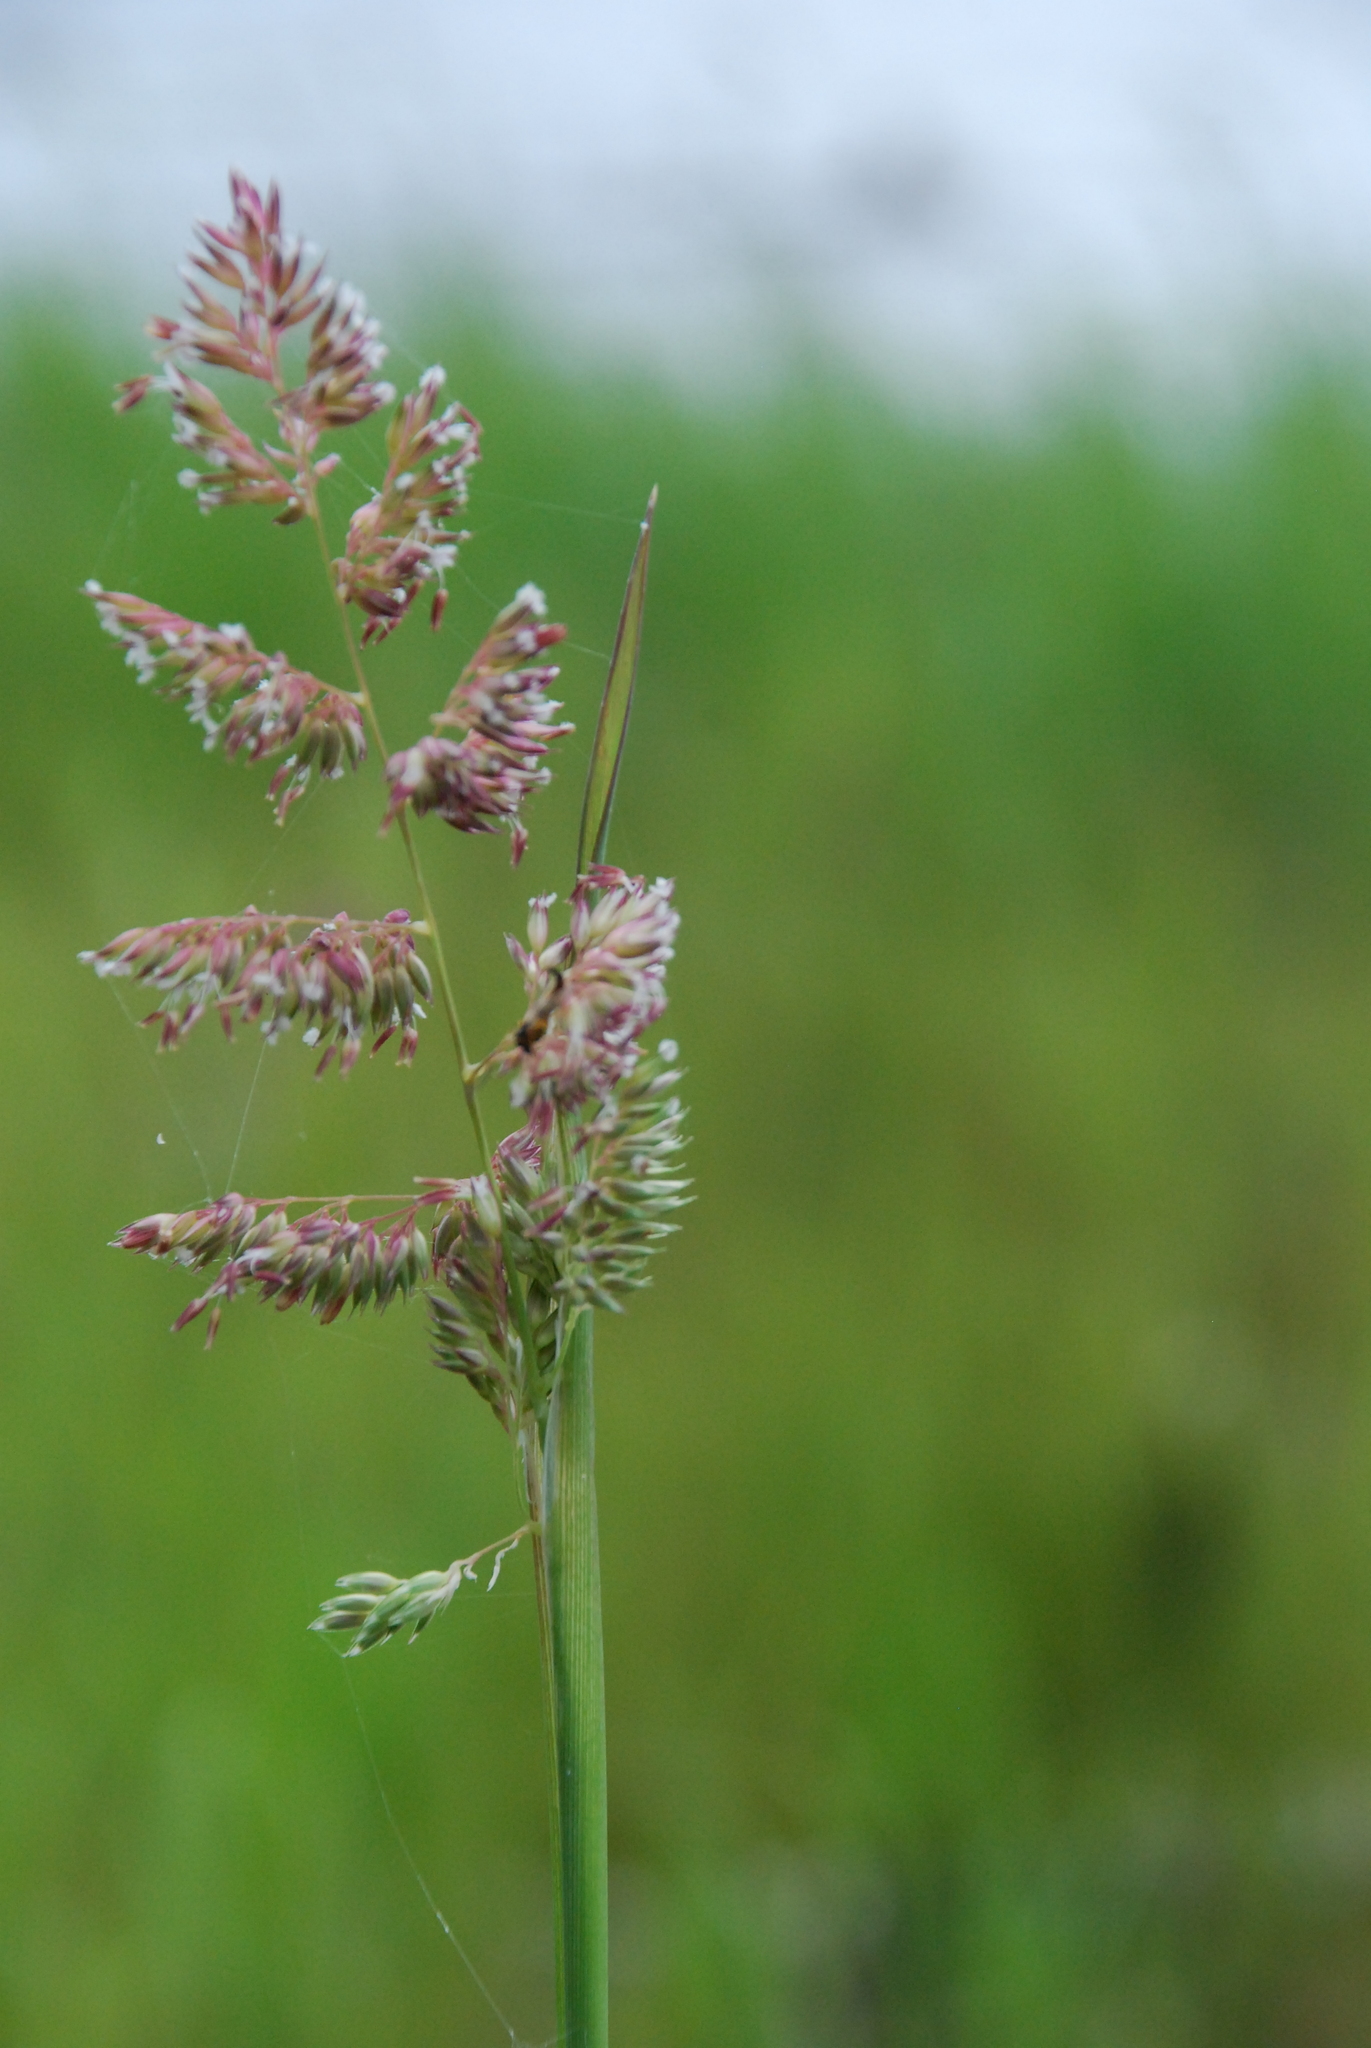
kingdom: Plantae
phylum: Tracheophyta
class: Liliopsida
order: Poales
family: Poaceae
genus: Phalaris
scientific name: Phalaris arundinacea
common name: Reed canary-grass
